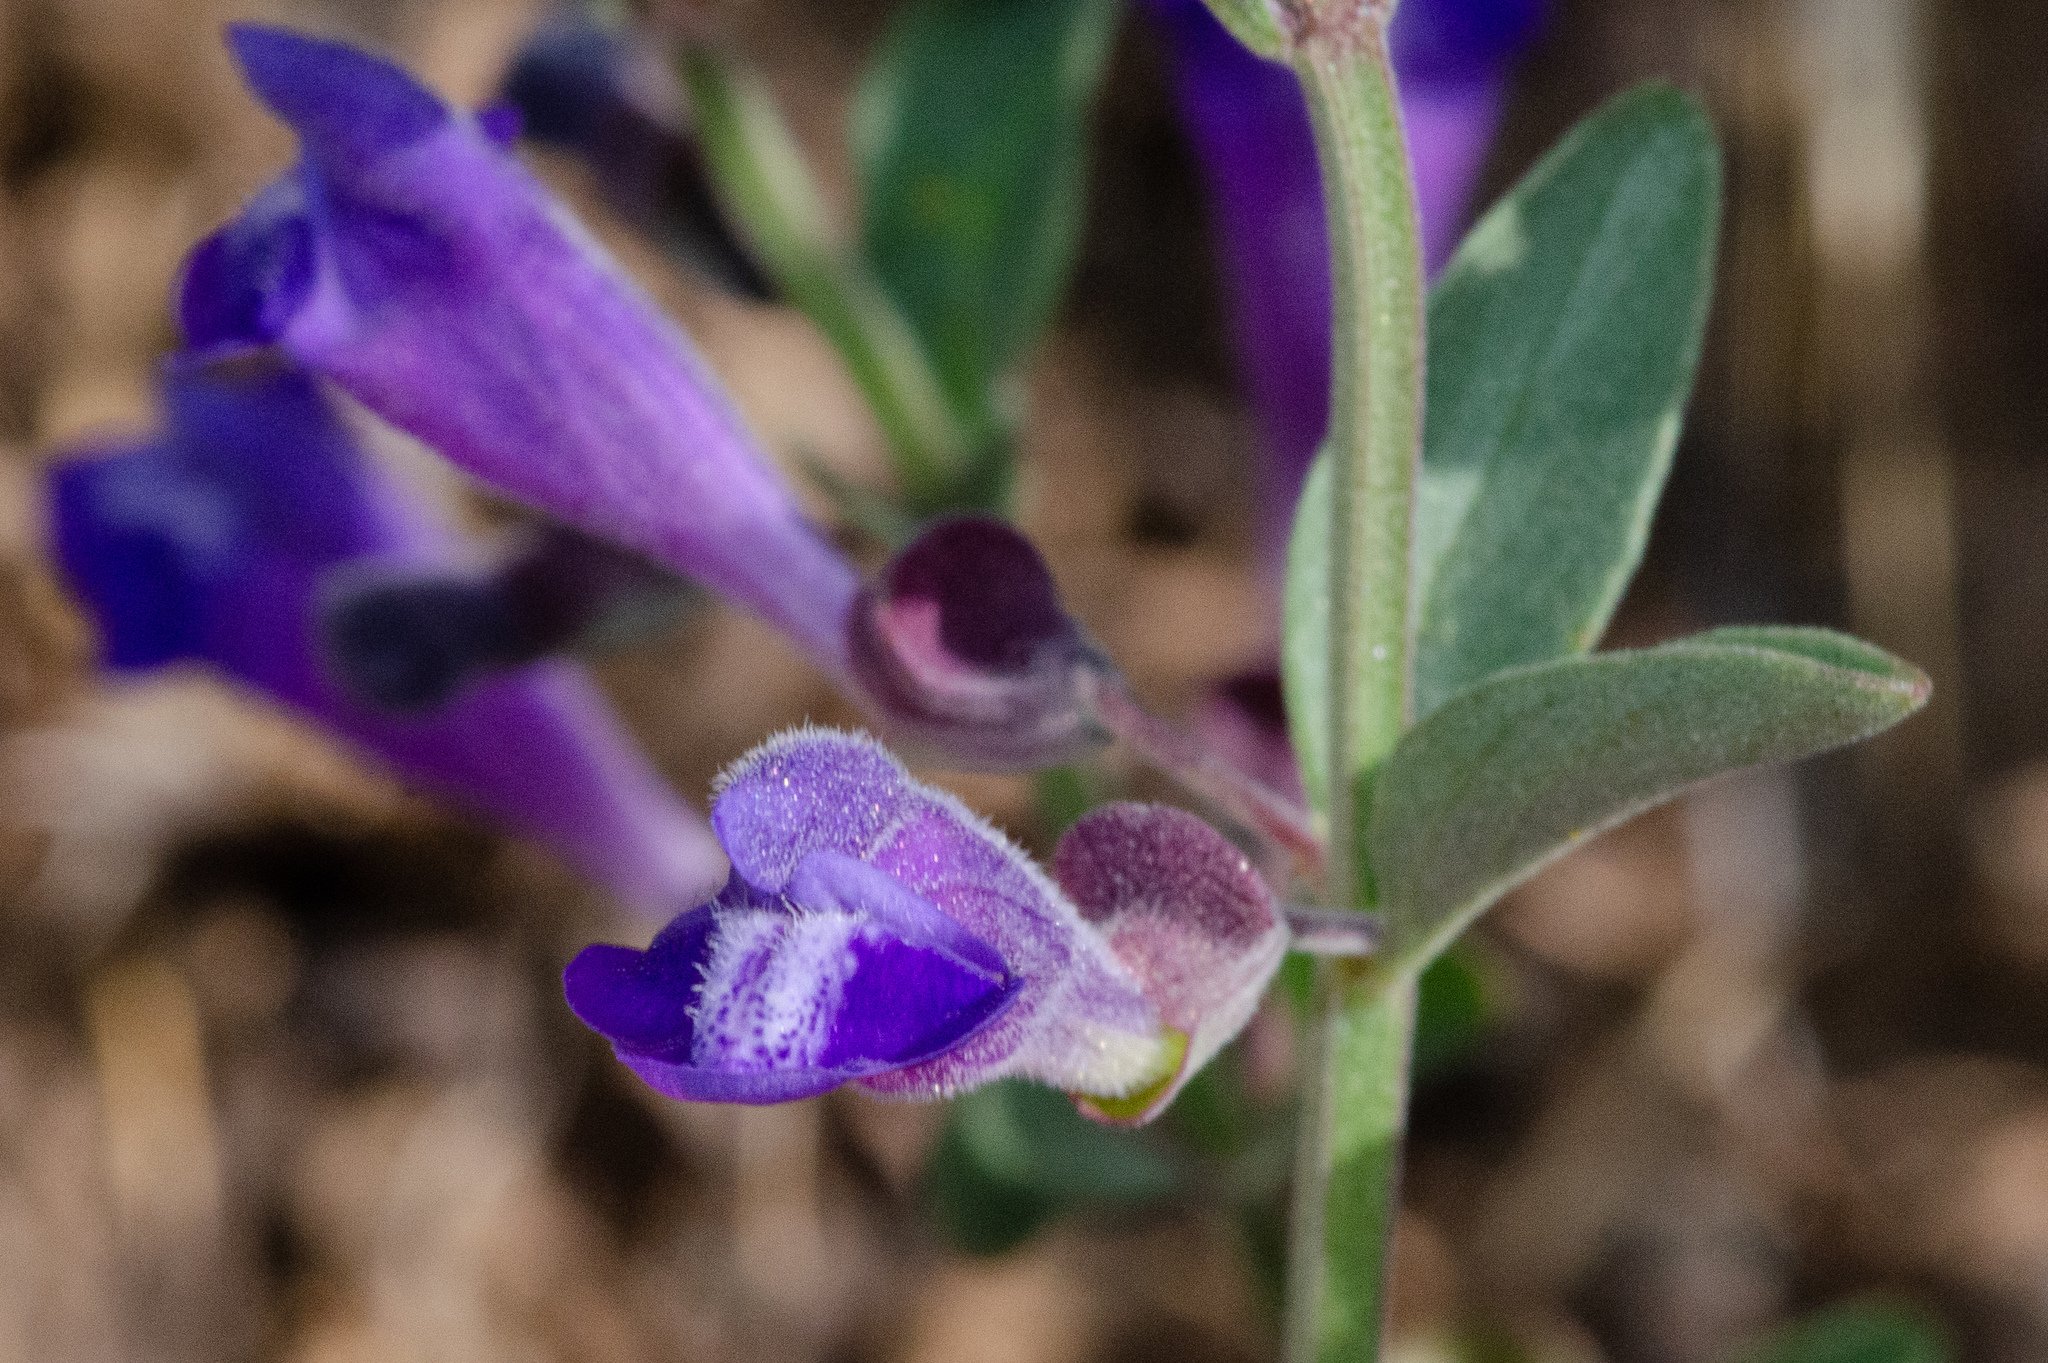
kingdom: Plantae
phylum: Tracheophyta
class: Magnoliopsida
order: Lamiales
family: Lamiaceae
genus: Scutellaria
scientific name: Scutellaria antirrhinoides
